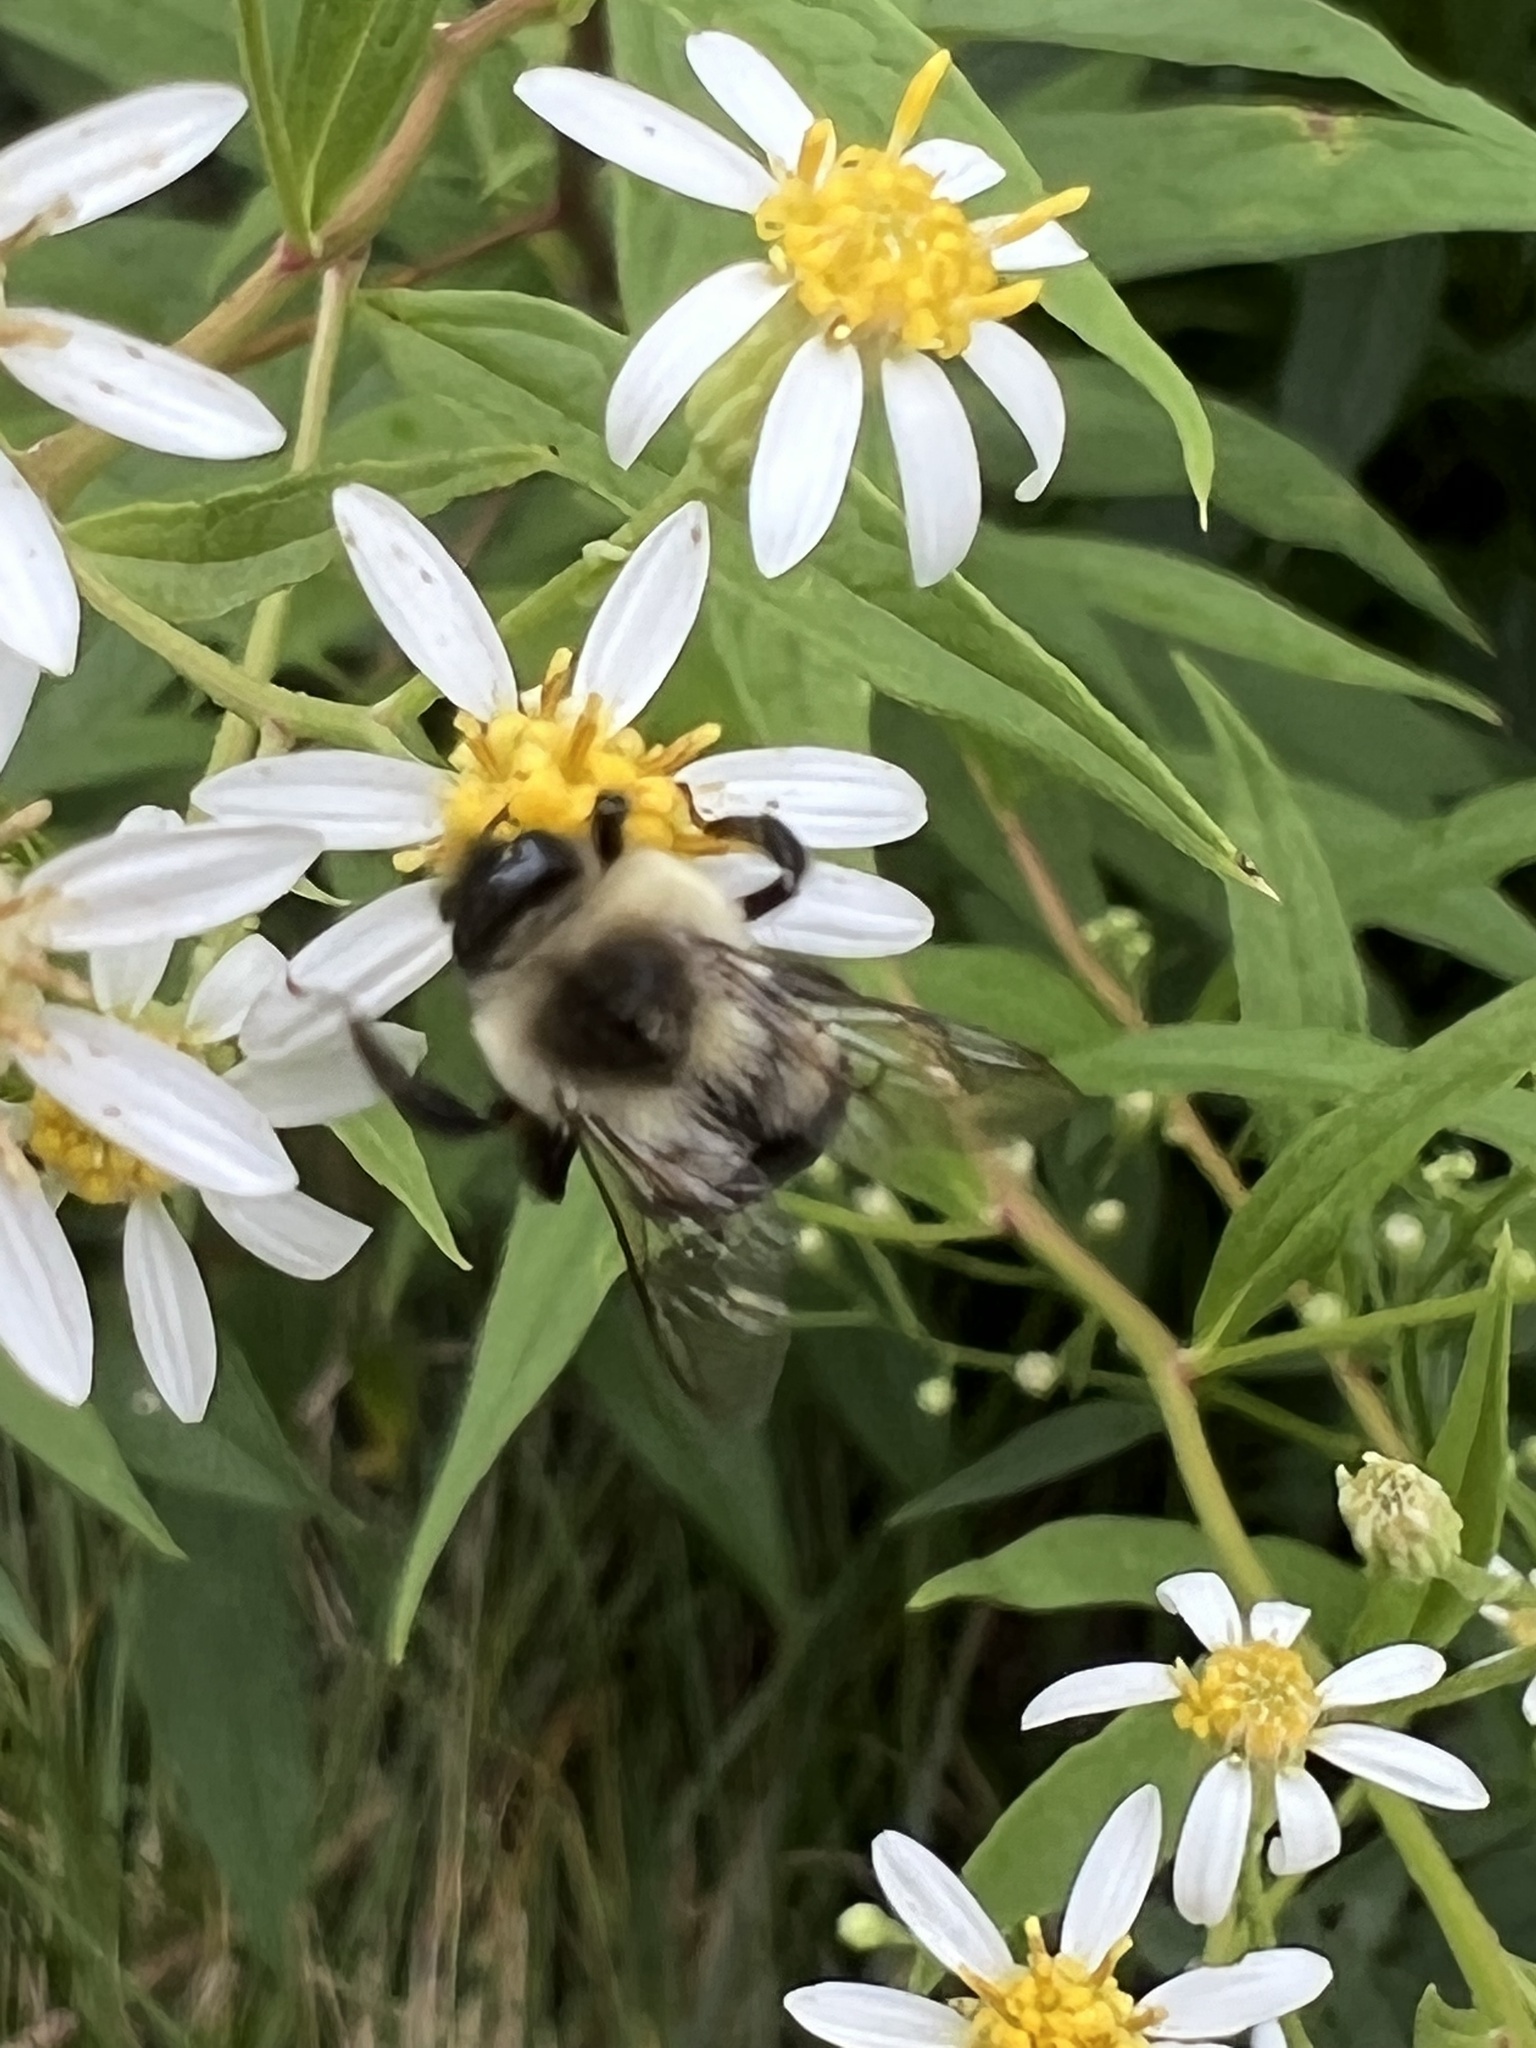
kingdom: Animalia
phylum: Arthropoda
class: Insecta
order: Hymenoptera
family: Apidae
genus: Bombus
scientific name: Bombus impatiens
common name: Common eastern bumble bee
